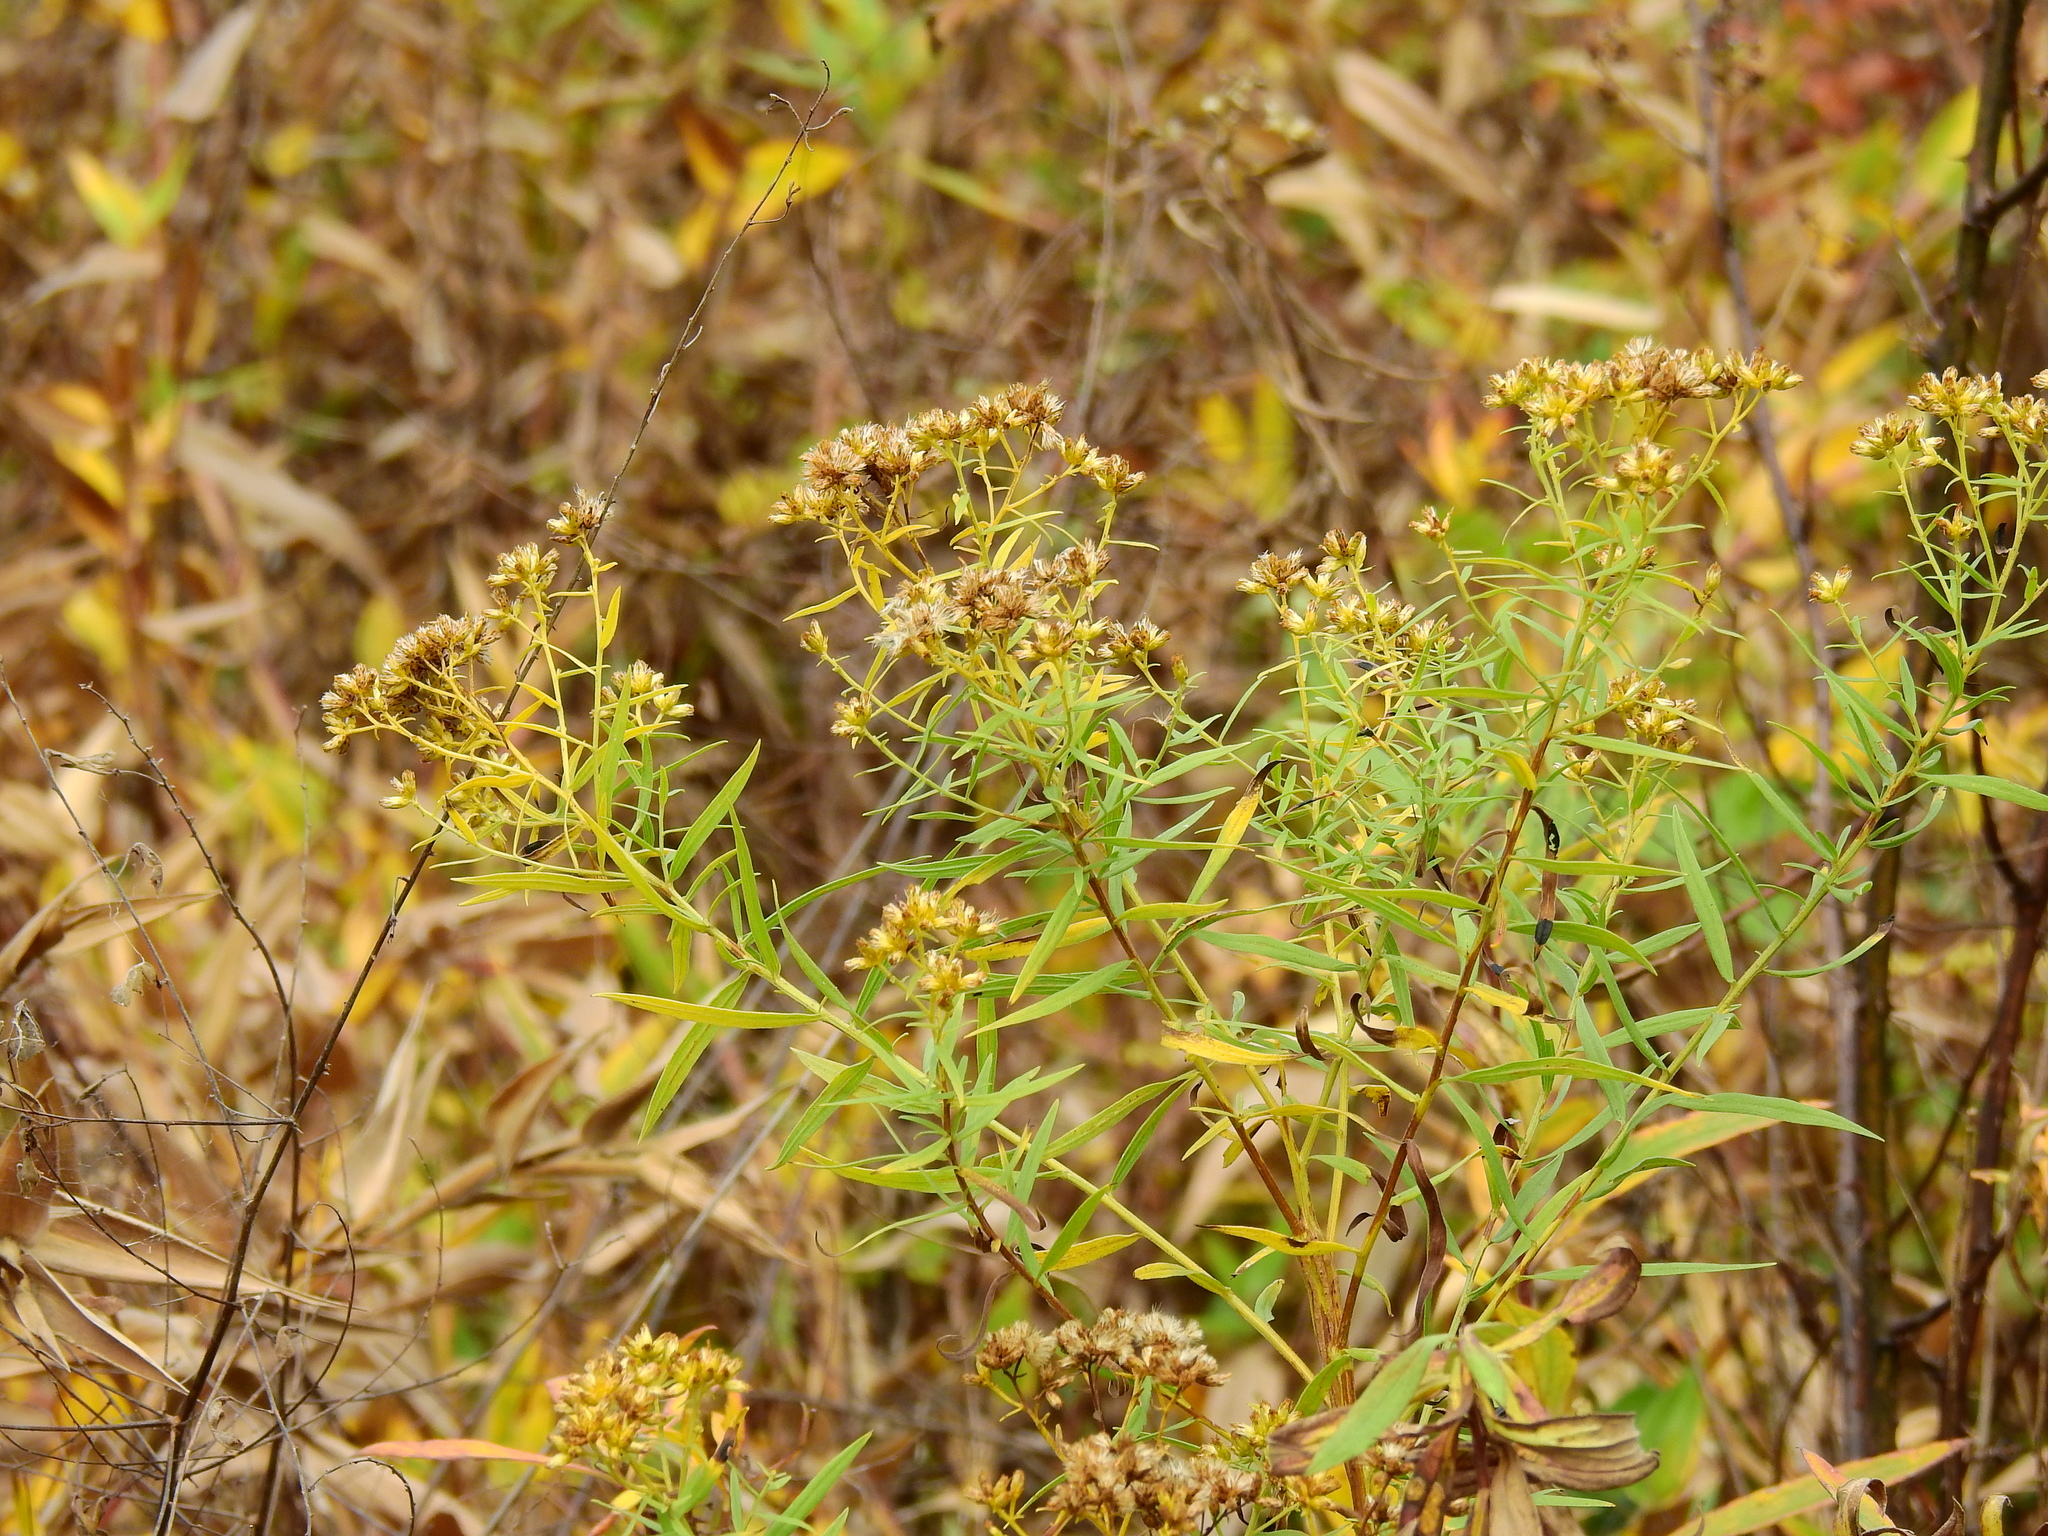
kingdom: Plantae
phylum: Tracheophyta
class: Magnoliopsida
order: Asterales
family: Asteraceae
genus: Euthamia
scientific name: Euthamia graminifolia
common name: Common goldentop
